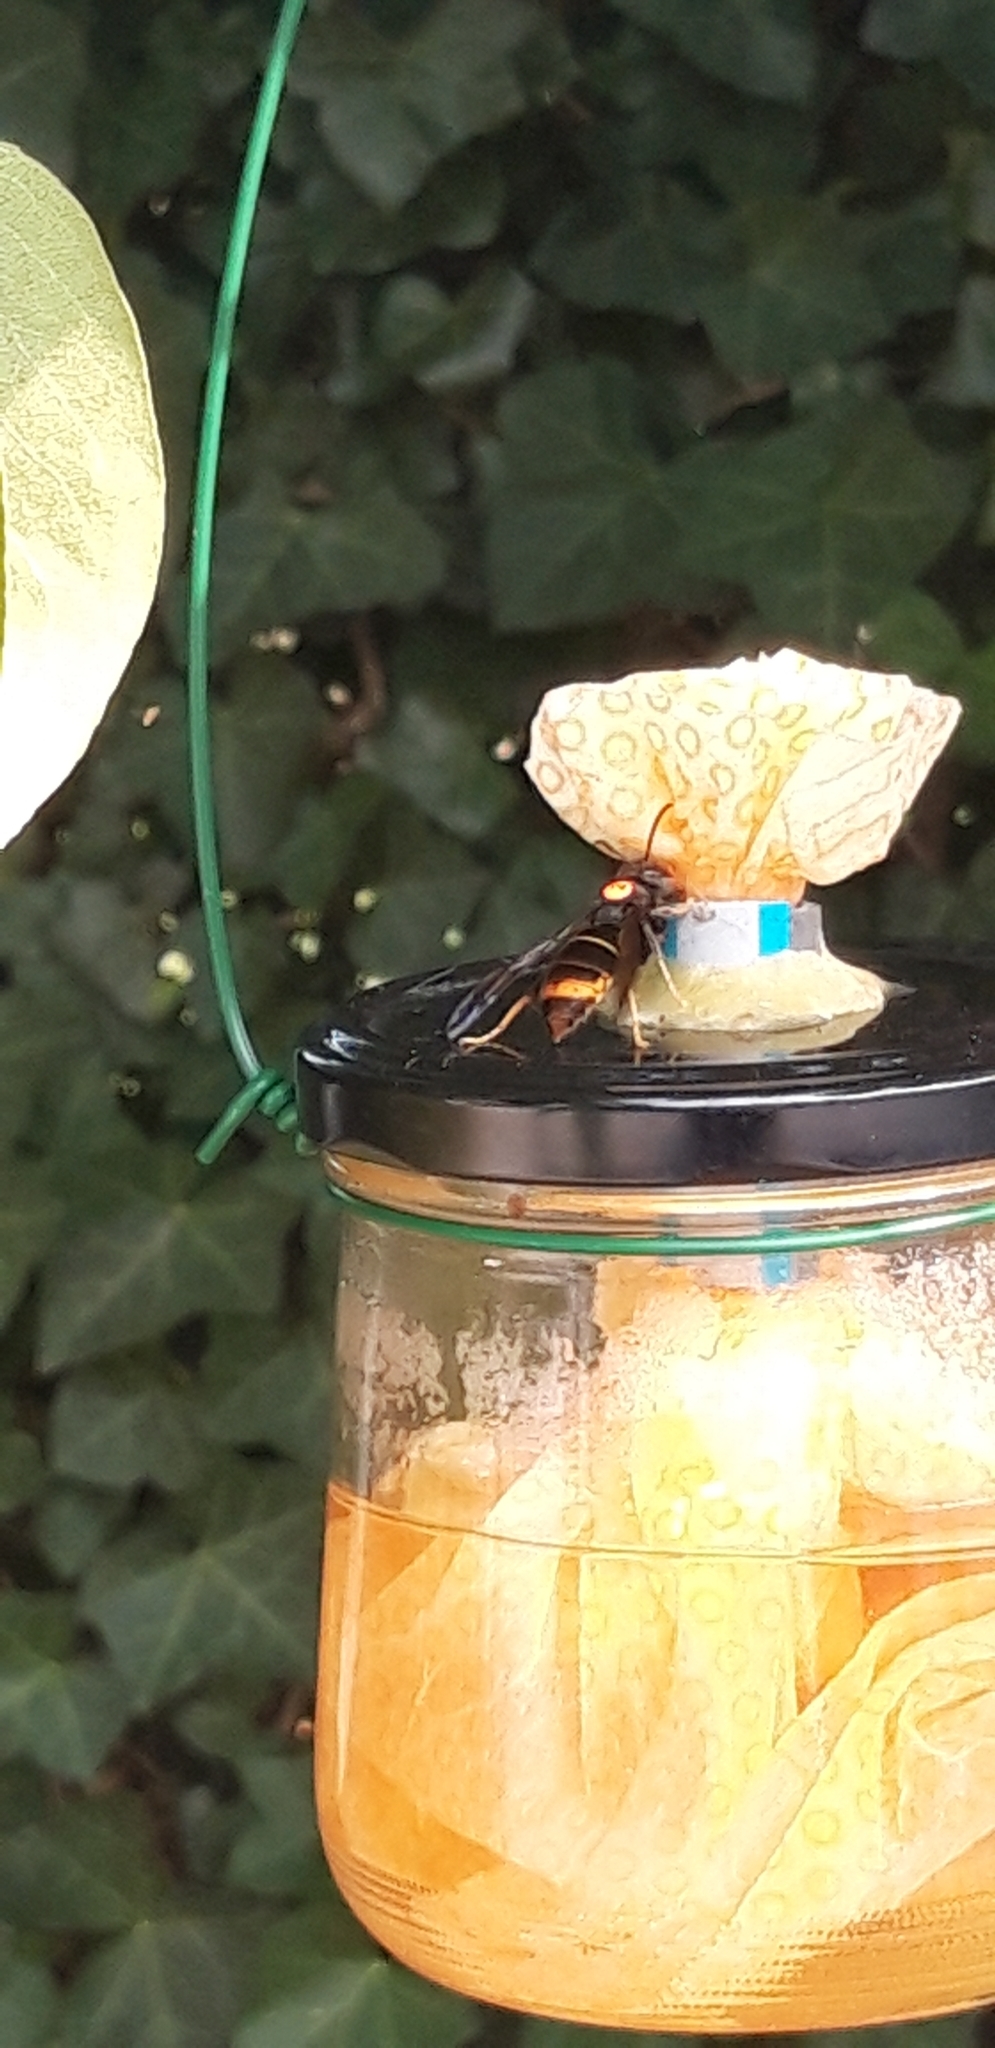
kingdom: Animalia
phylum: Arthropoda
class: Insecta
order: Hymenoptera
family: Vespidae
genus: Vespa
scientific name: Vespa velutina
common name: Asian hornet
